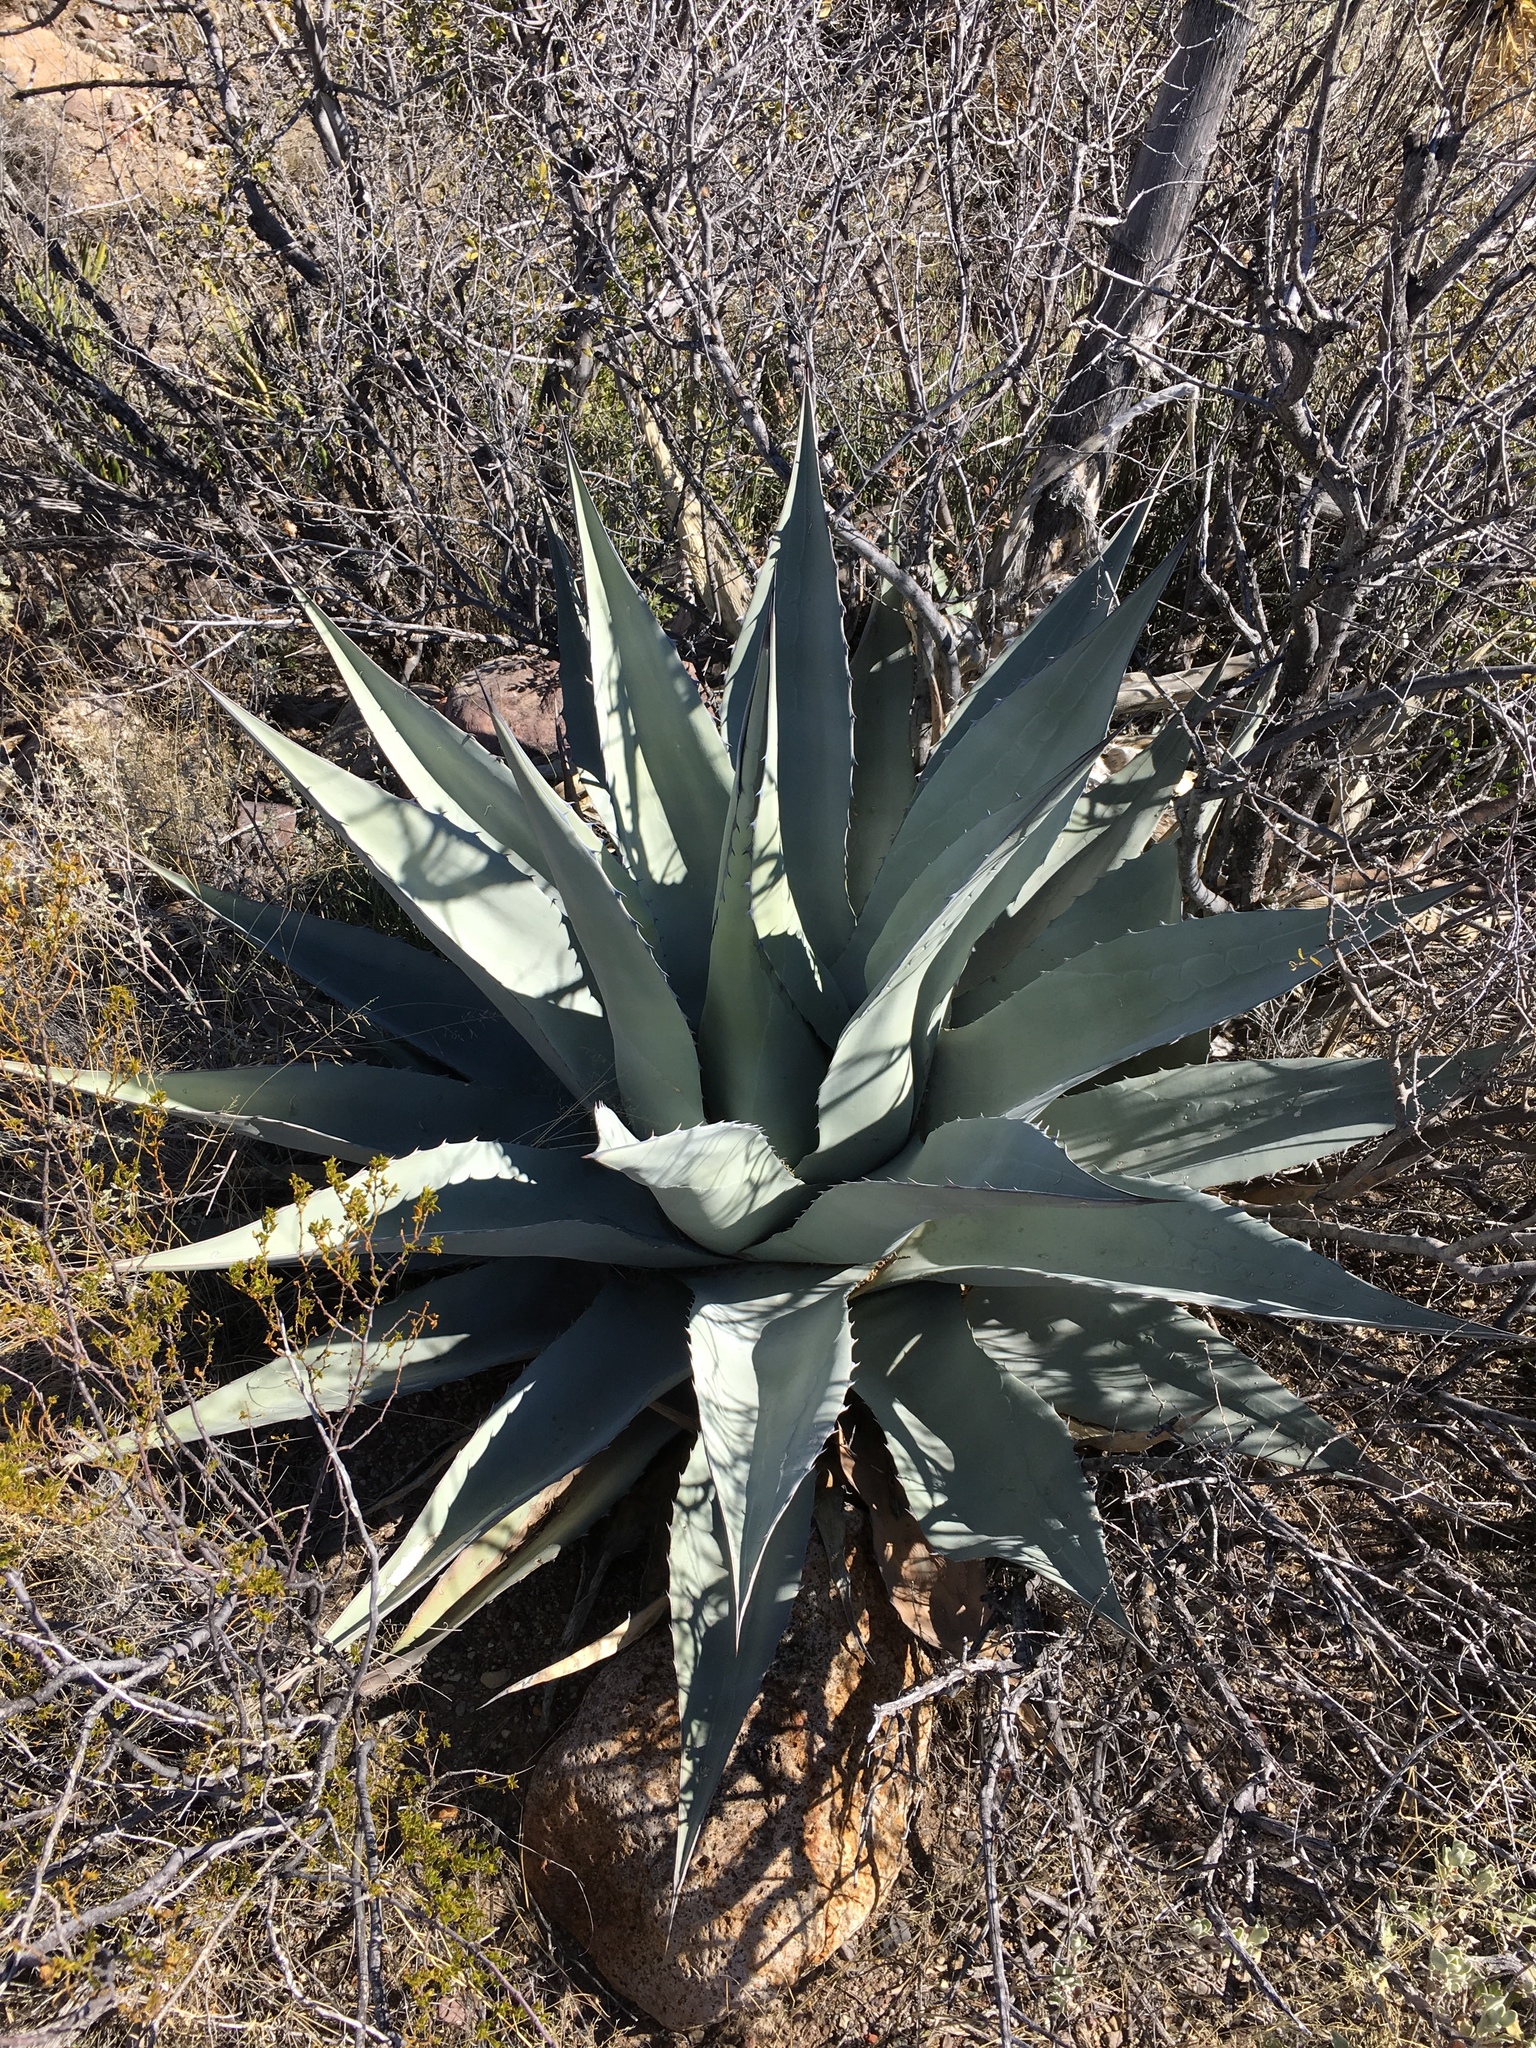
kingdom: Plantae
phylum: Tracheophyta
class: Liliopsida
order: Asparagales
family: Asparagaceae
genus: Agave
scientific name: Agave havardiana
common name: Havard agave
